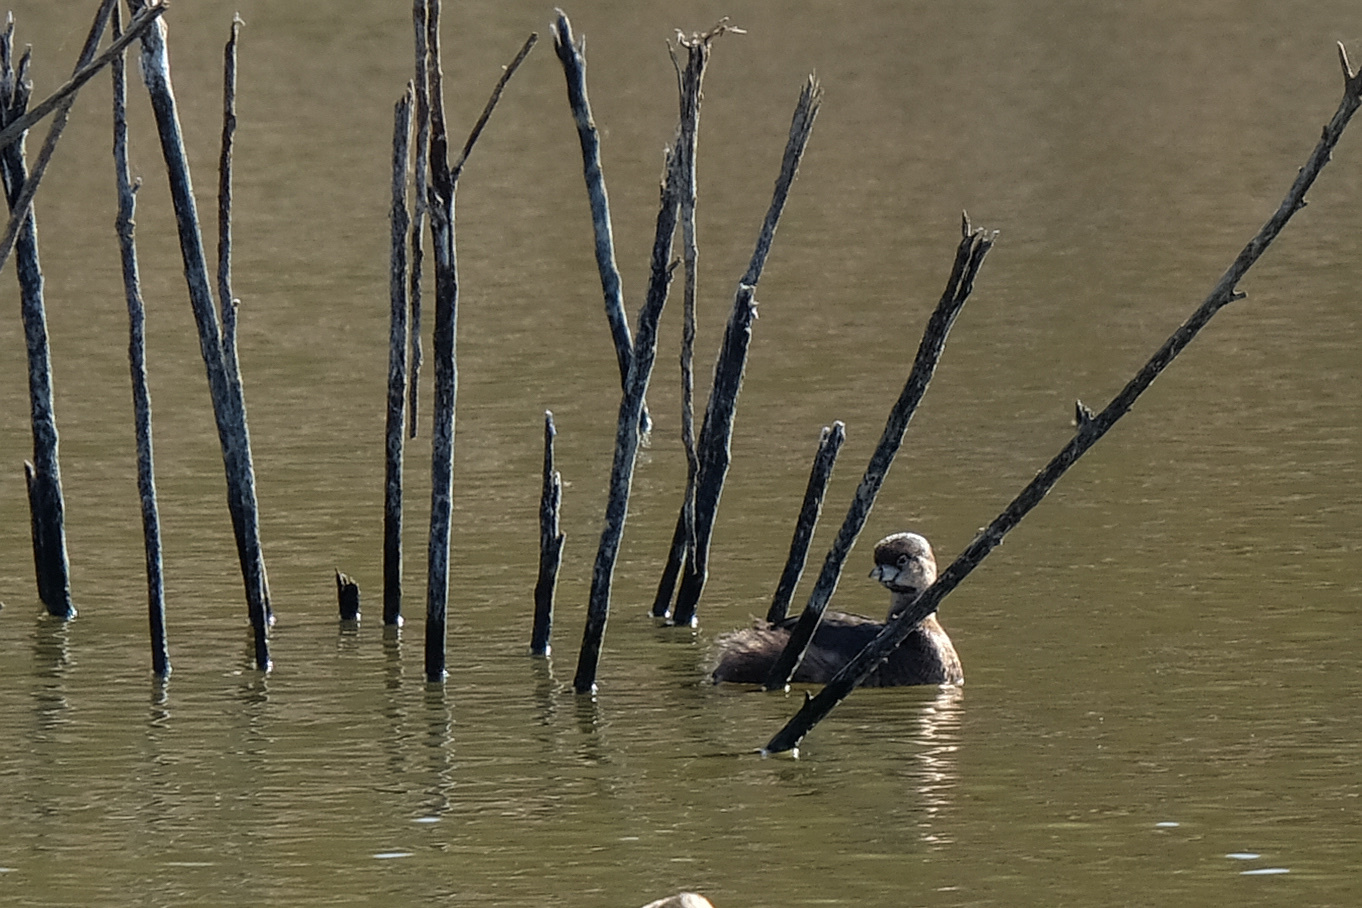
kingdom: Animalia
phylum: Chordata
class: Aves
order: Podicipediformes
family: Podicipedidae
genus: Podilymbus
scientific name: Podilymbus podiceps
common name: Pied-billed grebe
